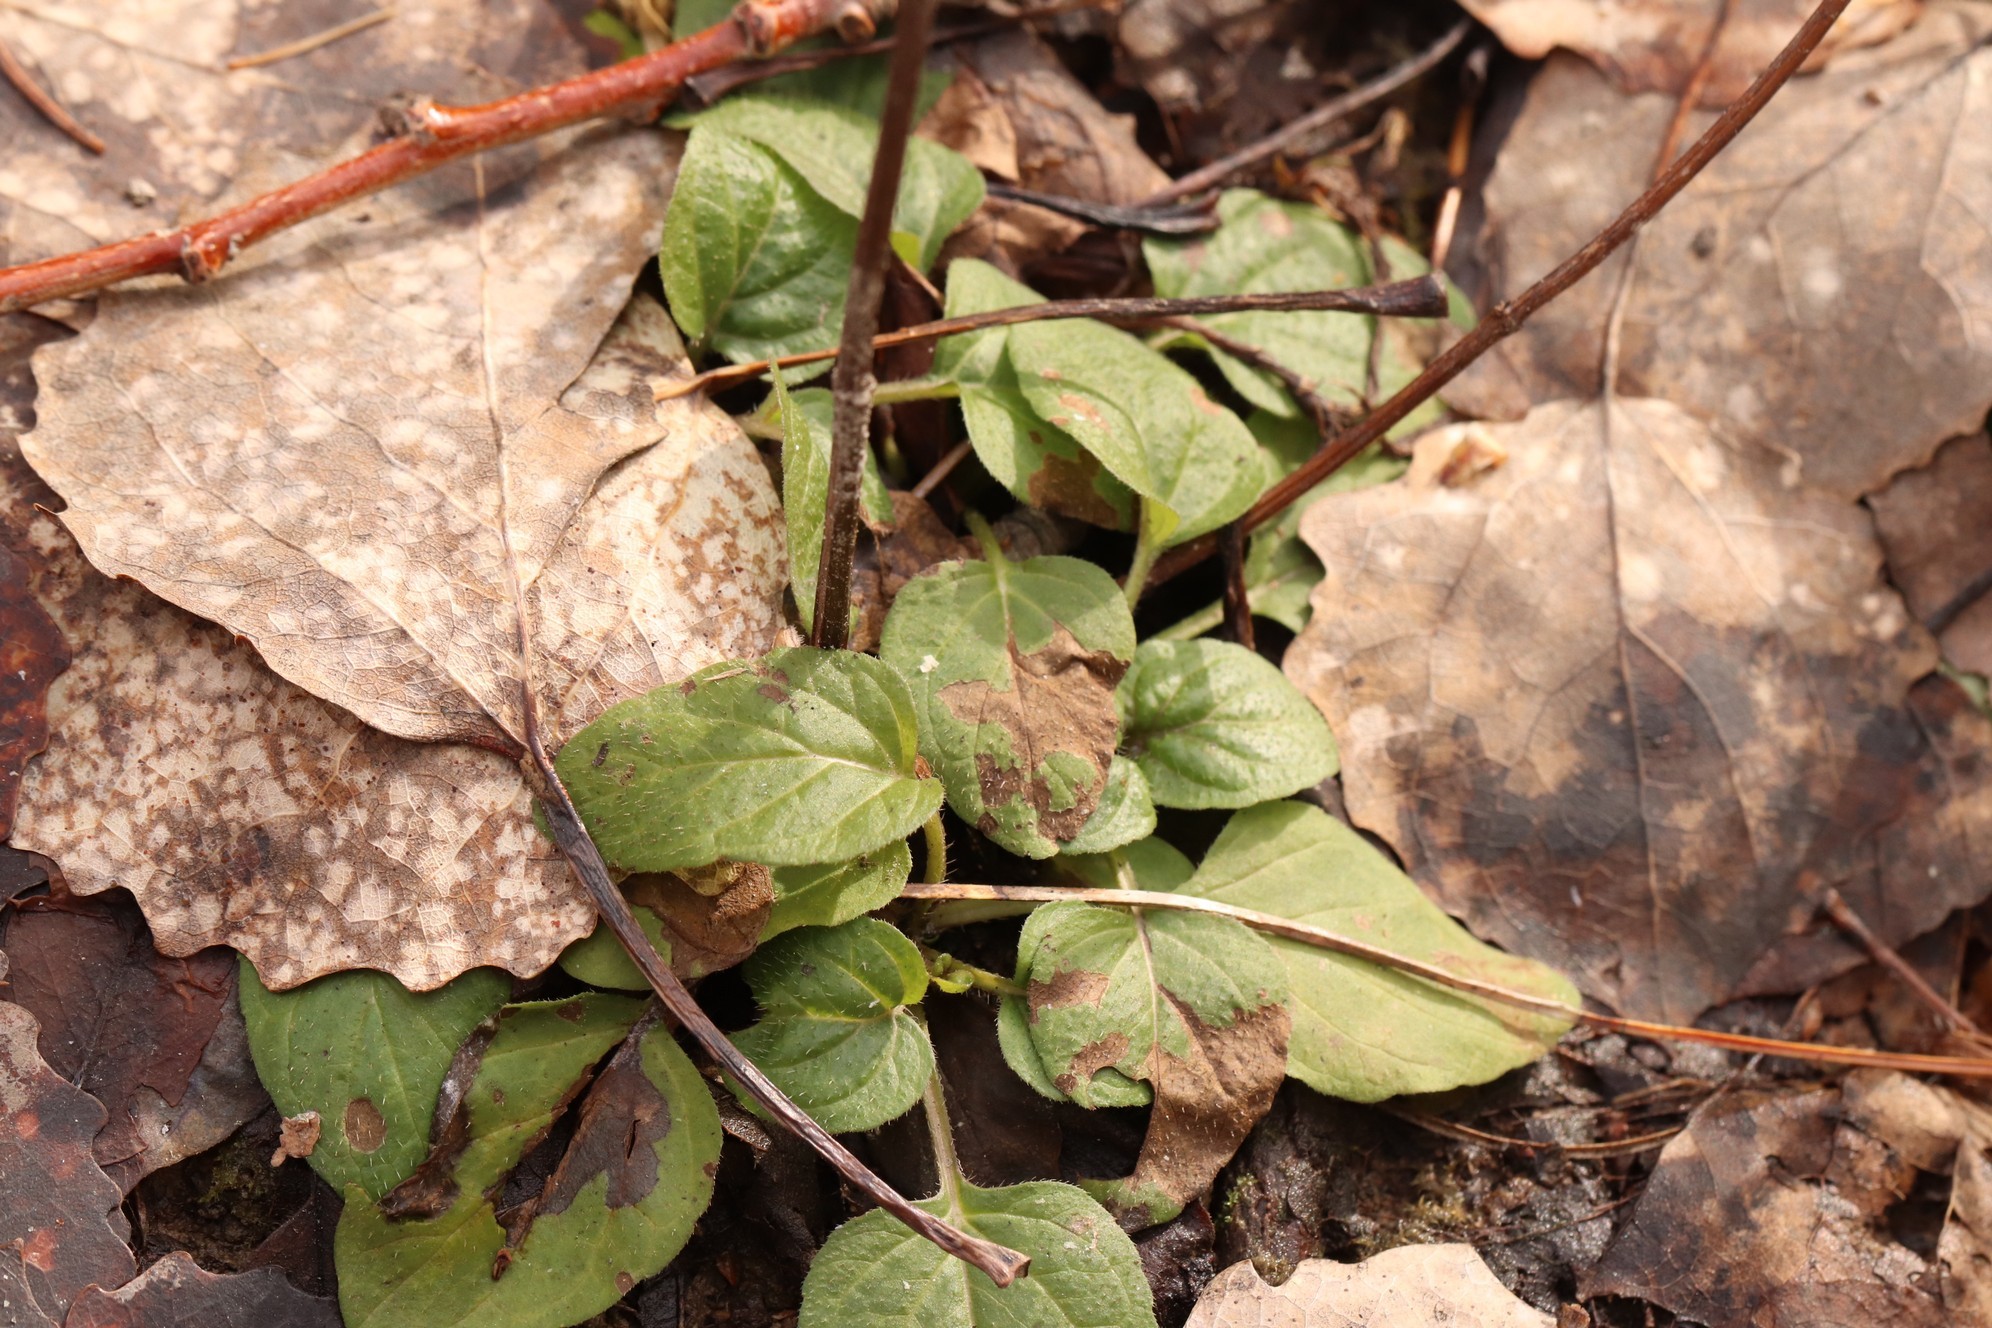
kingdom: Plantae
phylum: Tracheophyta
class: Magnoliopsida
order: Lamiales
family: Lamiaceae
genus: Prunella
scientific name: Prunella vulgaris
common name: Heal-all
